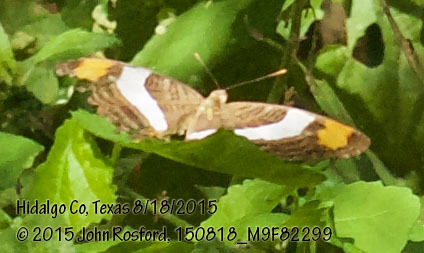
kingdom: Animalia
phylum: Arthropoda
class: Insecta
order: Lepidoptera
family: Nymphalidae
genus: Limenitis
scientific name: Limenitis fessonia
